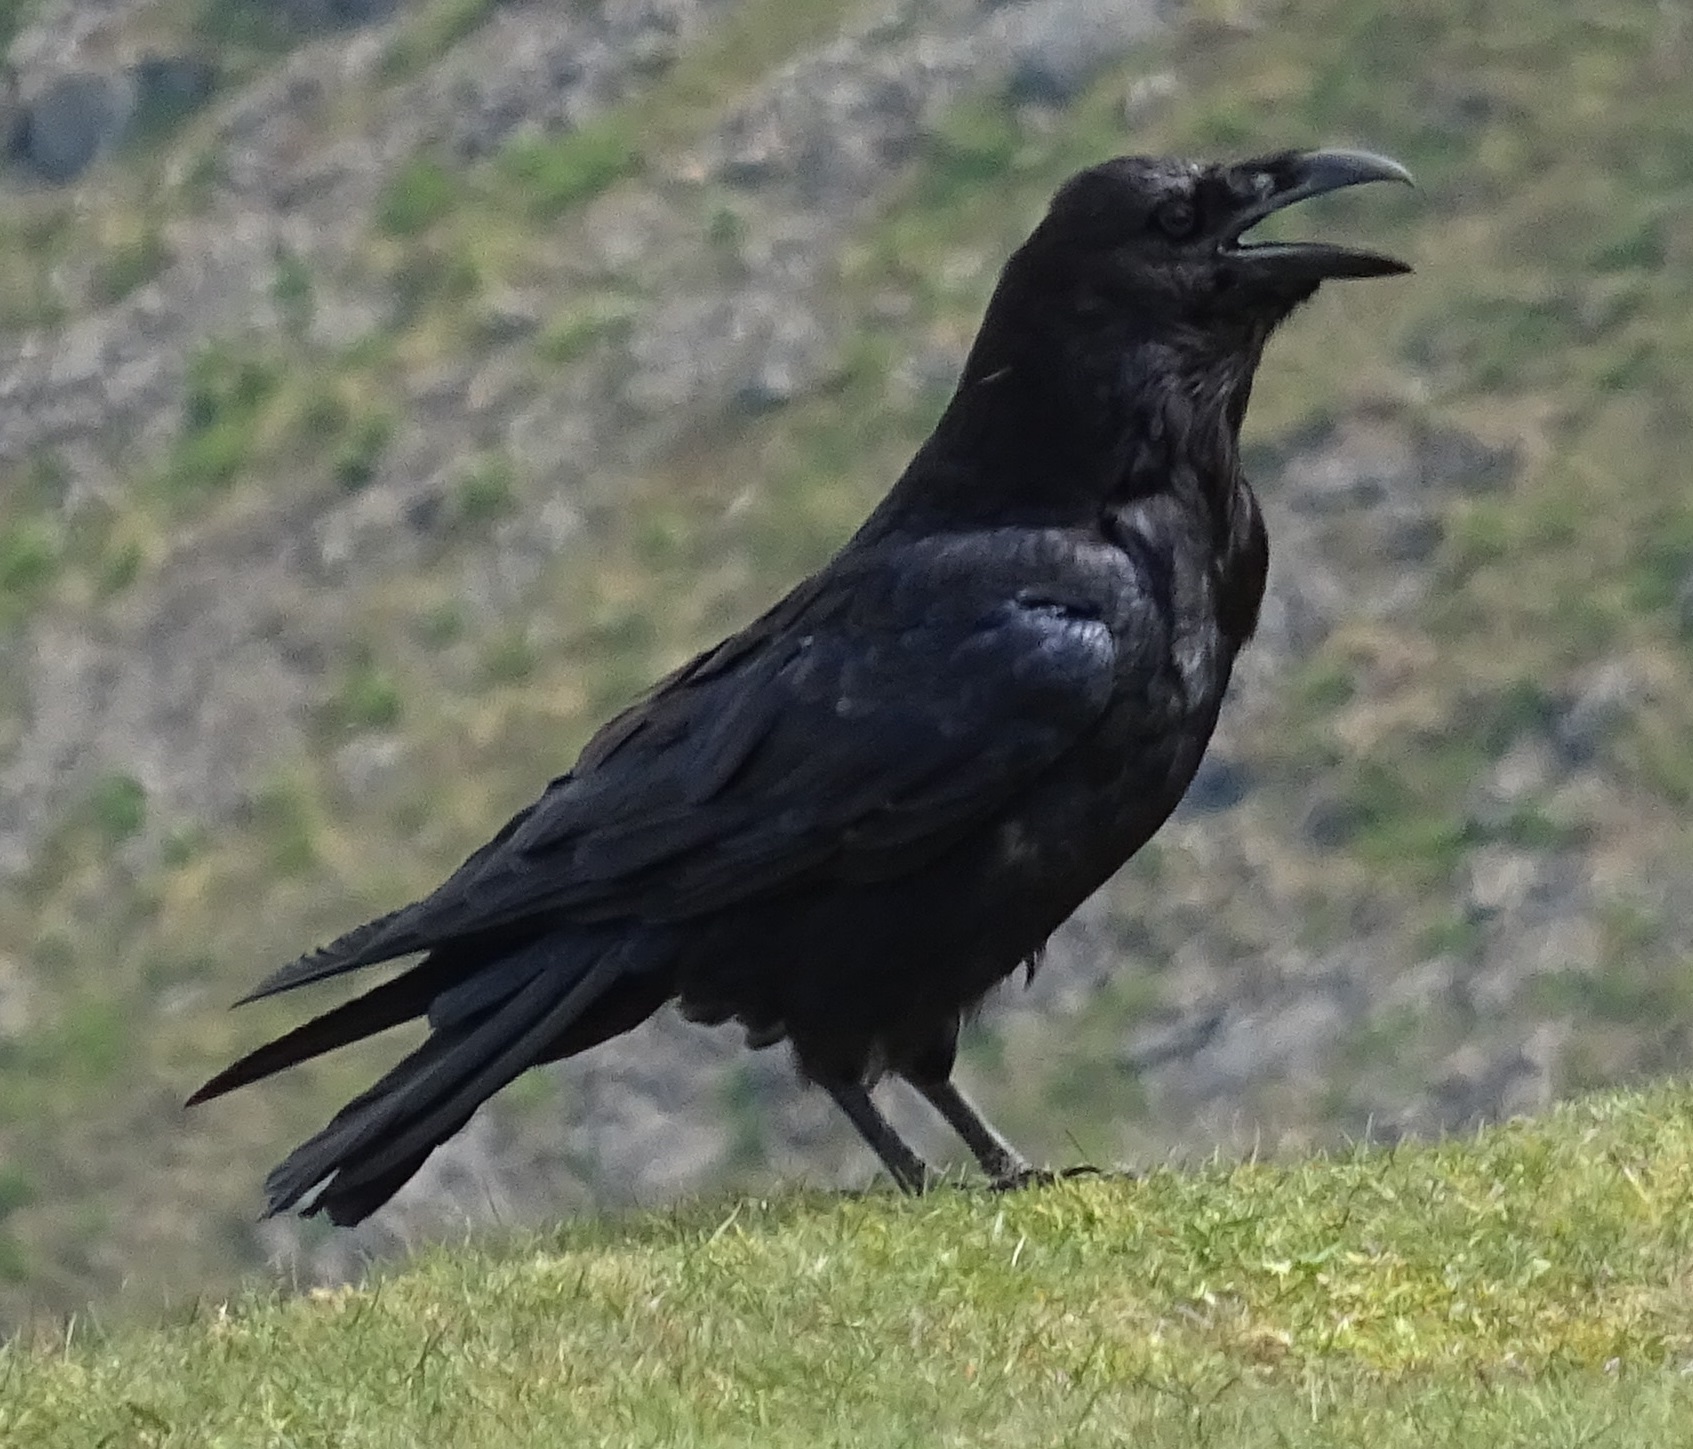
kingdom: Animalia
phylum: Chordata
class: Aves
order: Passeriformes
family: Corvidae
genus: Corvus
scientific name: Corvus corax
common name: Common raven
